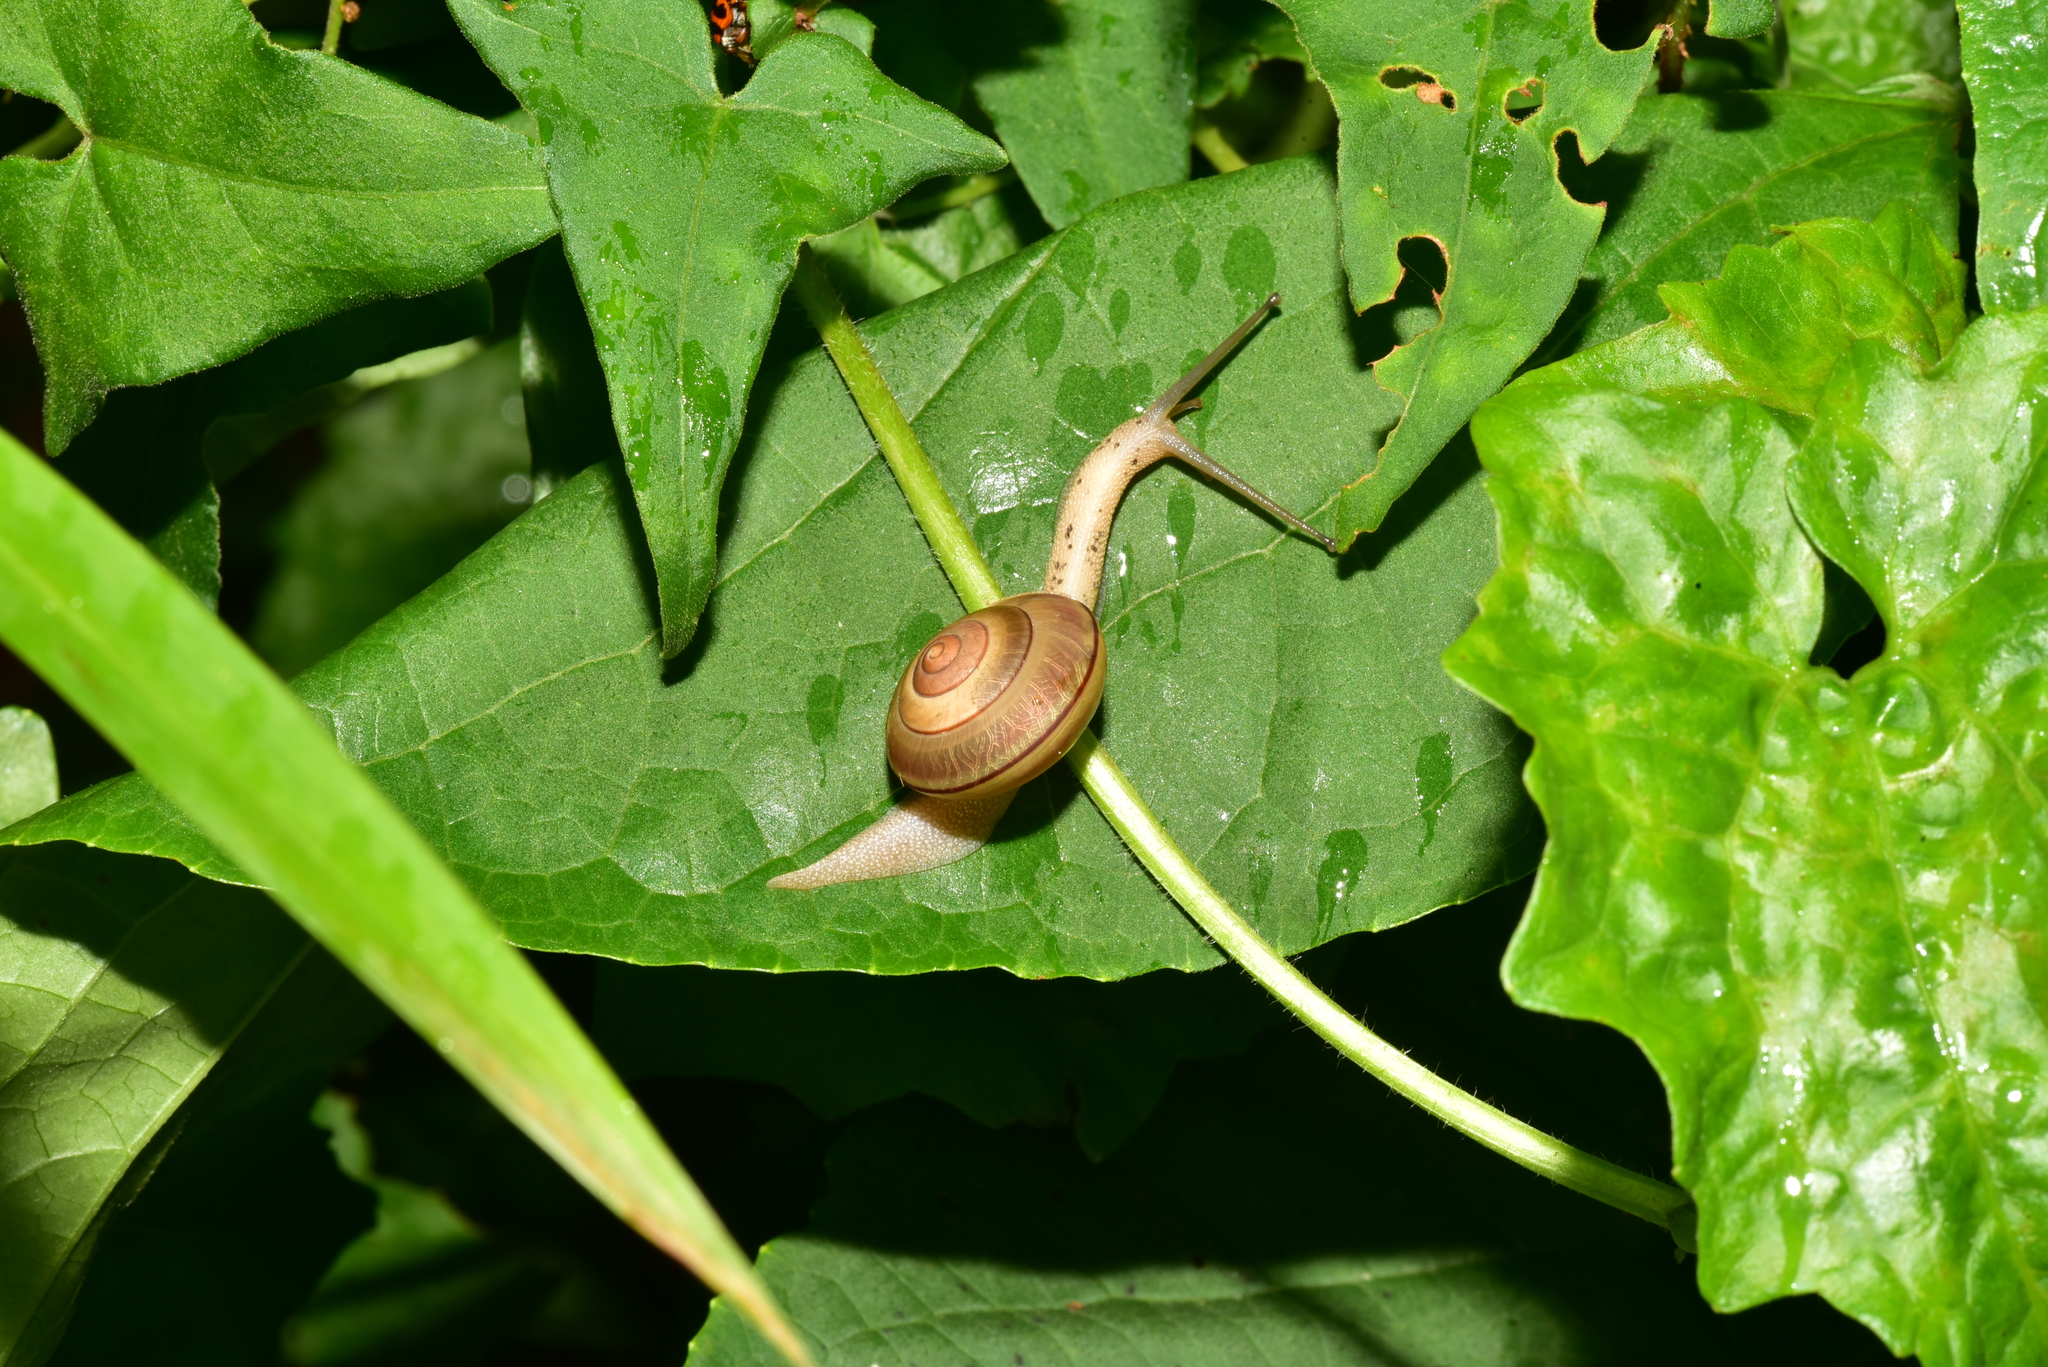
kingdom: Animalia
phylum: Mollusca
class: Gastropoda
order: Stylommatophora
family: Camaenidae
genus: Satsuma
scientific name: Satsuma wenshini
